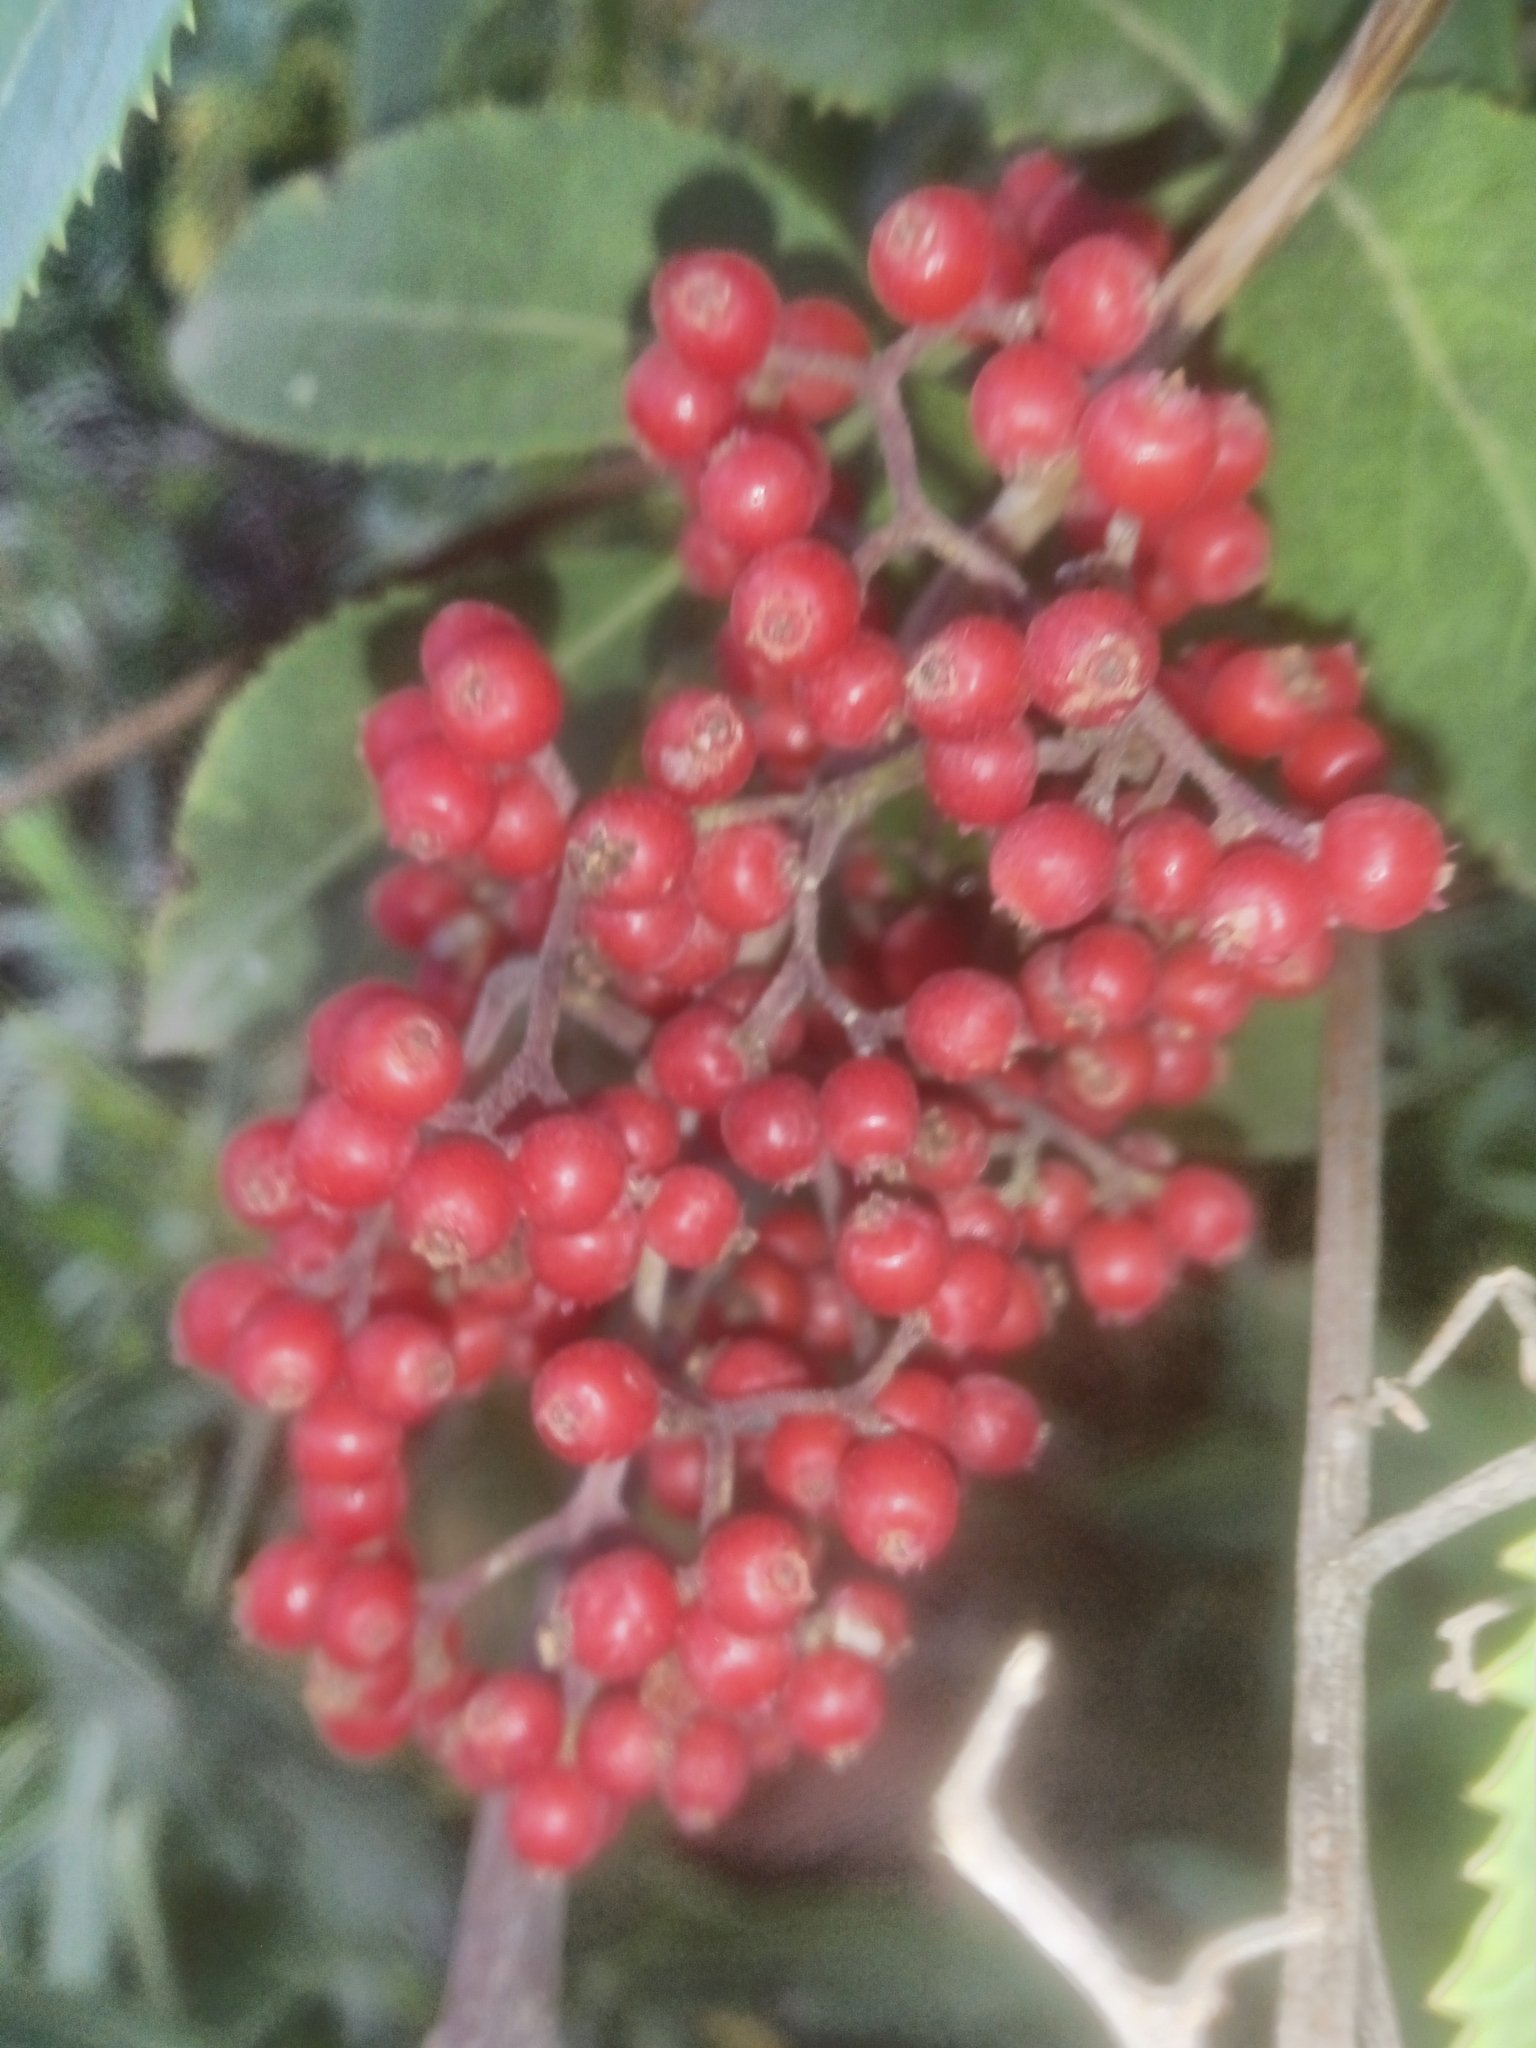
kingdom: Plantae
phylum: Tracheophyta
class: Magnoliopsida
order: Dipsacales
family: Viburnaceae
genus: Sambucus
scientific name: Sambucus racemosa
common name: Red-berried elder
